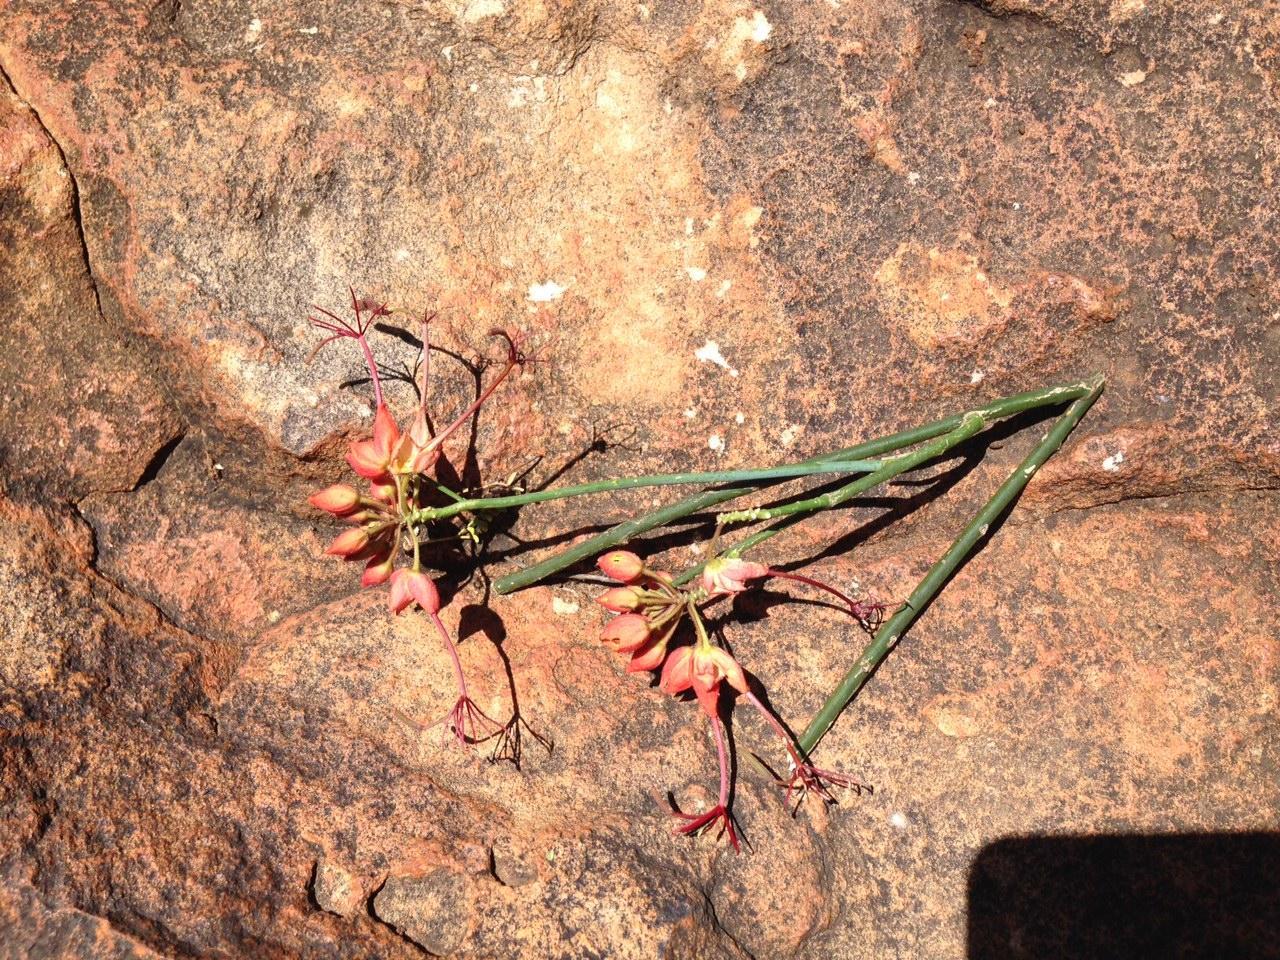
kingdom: Plantae
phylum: Tracheophyta
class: Magnoliopsida
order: Brassicales
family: Capparaceae
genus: Cadaba
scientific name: Cadaba aphylla
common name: Black storm
